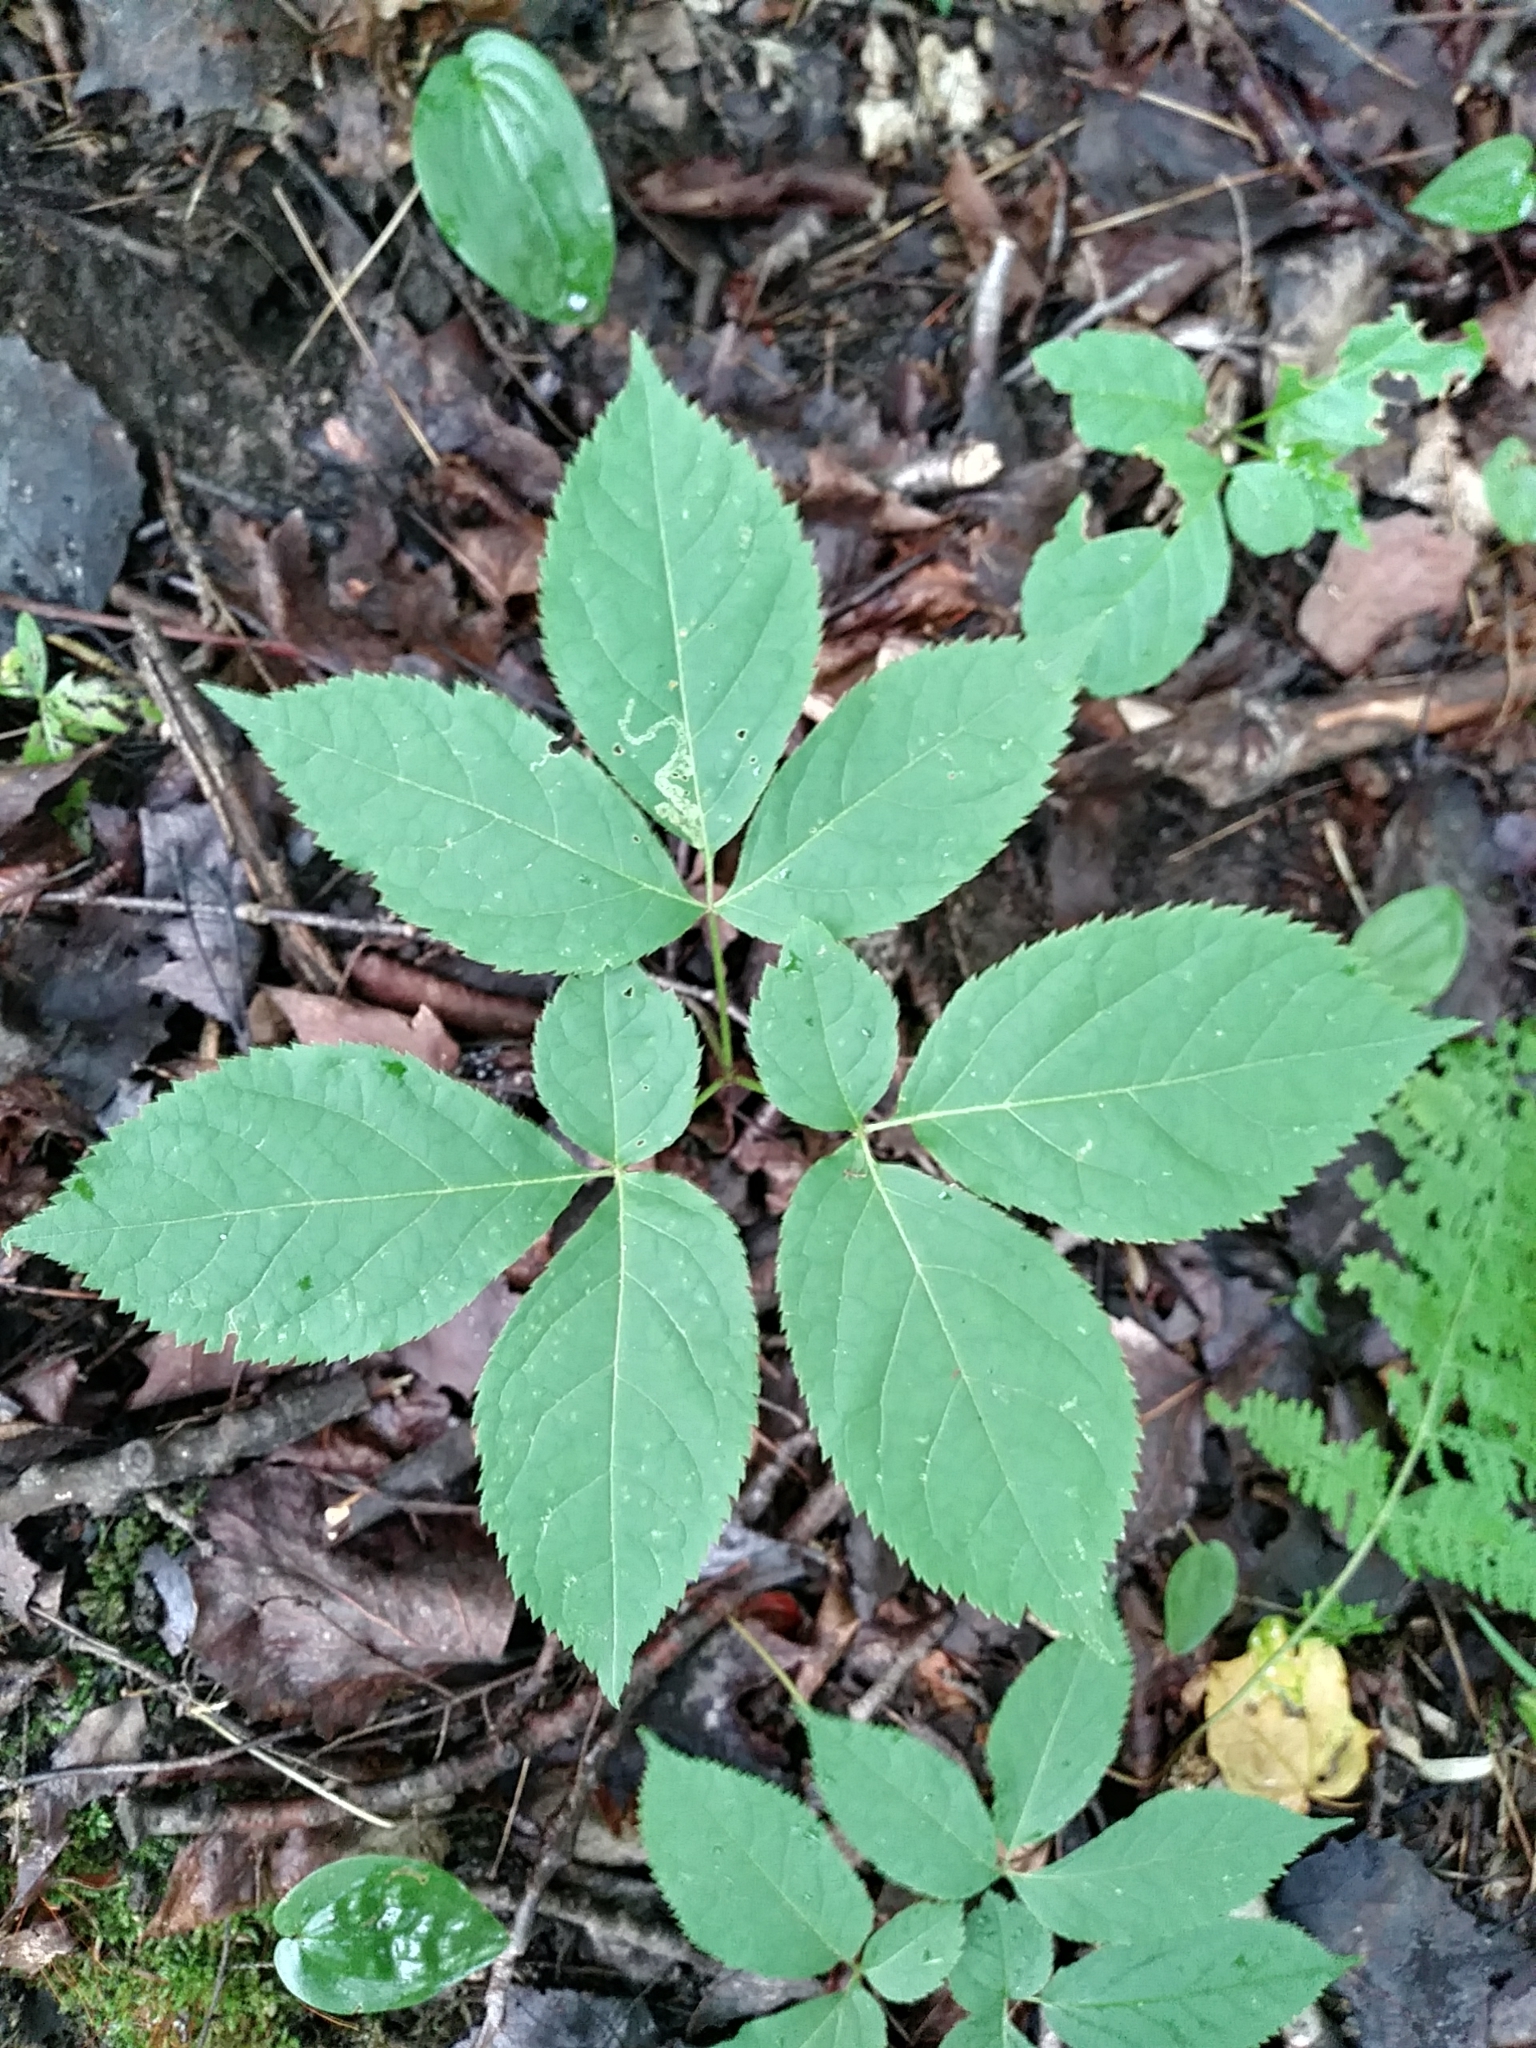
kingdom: Plantae
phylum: Tracheophyta
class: Magnoliopsida
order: Apiales
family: Araliaceae
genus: Aralia
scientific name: Aralia nudicaulis
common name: Wild sarsaparilla
